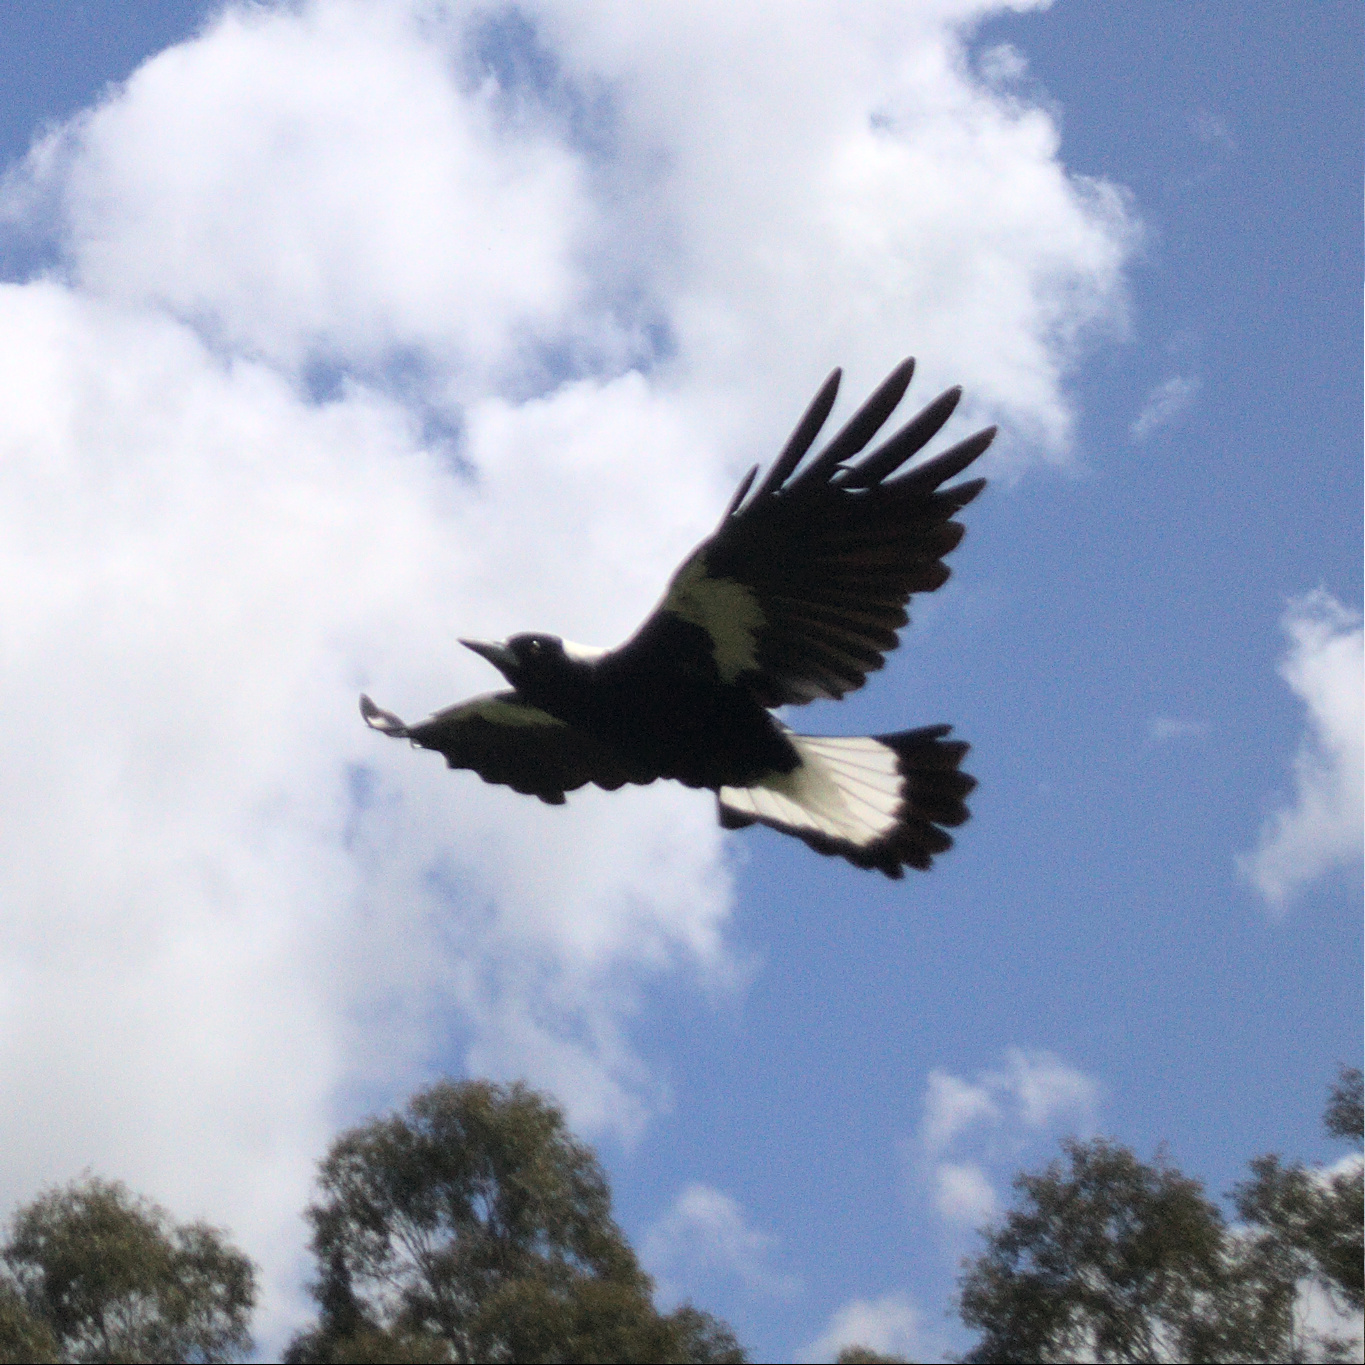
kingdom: Animalia
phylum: Chordata
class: Aves
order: Passeriformes
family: Cracticidae
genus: Gymnorhina
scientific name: Gymnorhina tibicen
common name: Australian magpie
